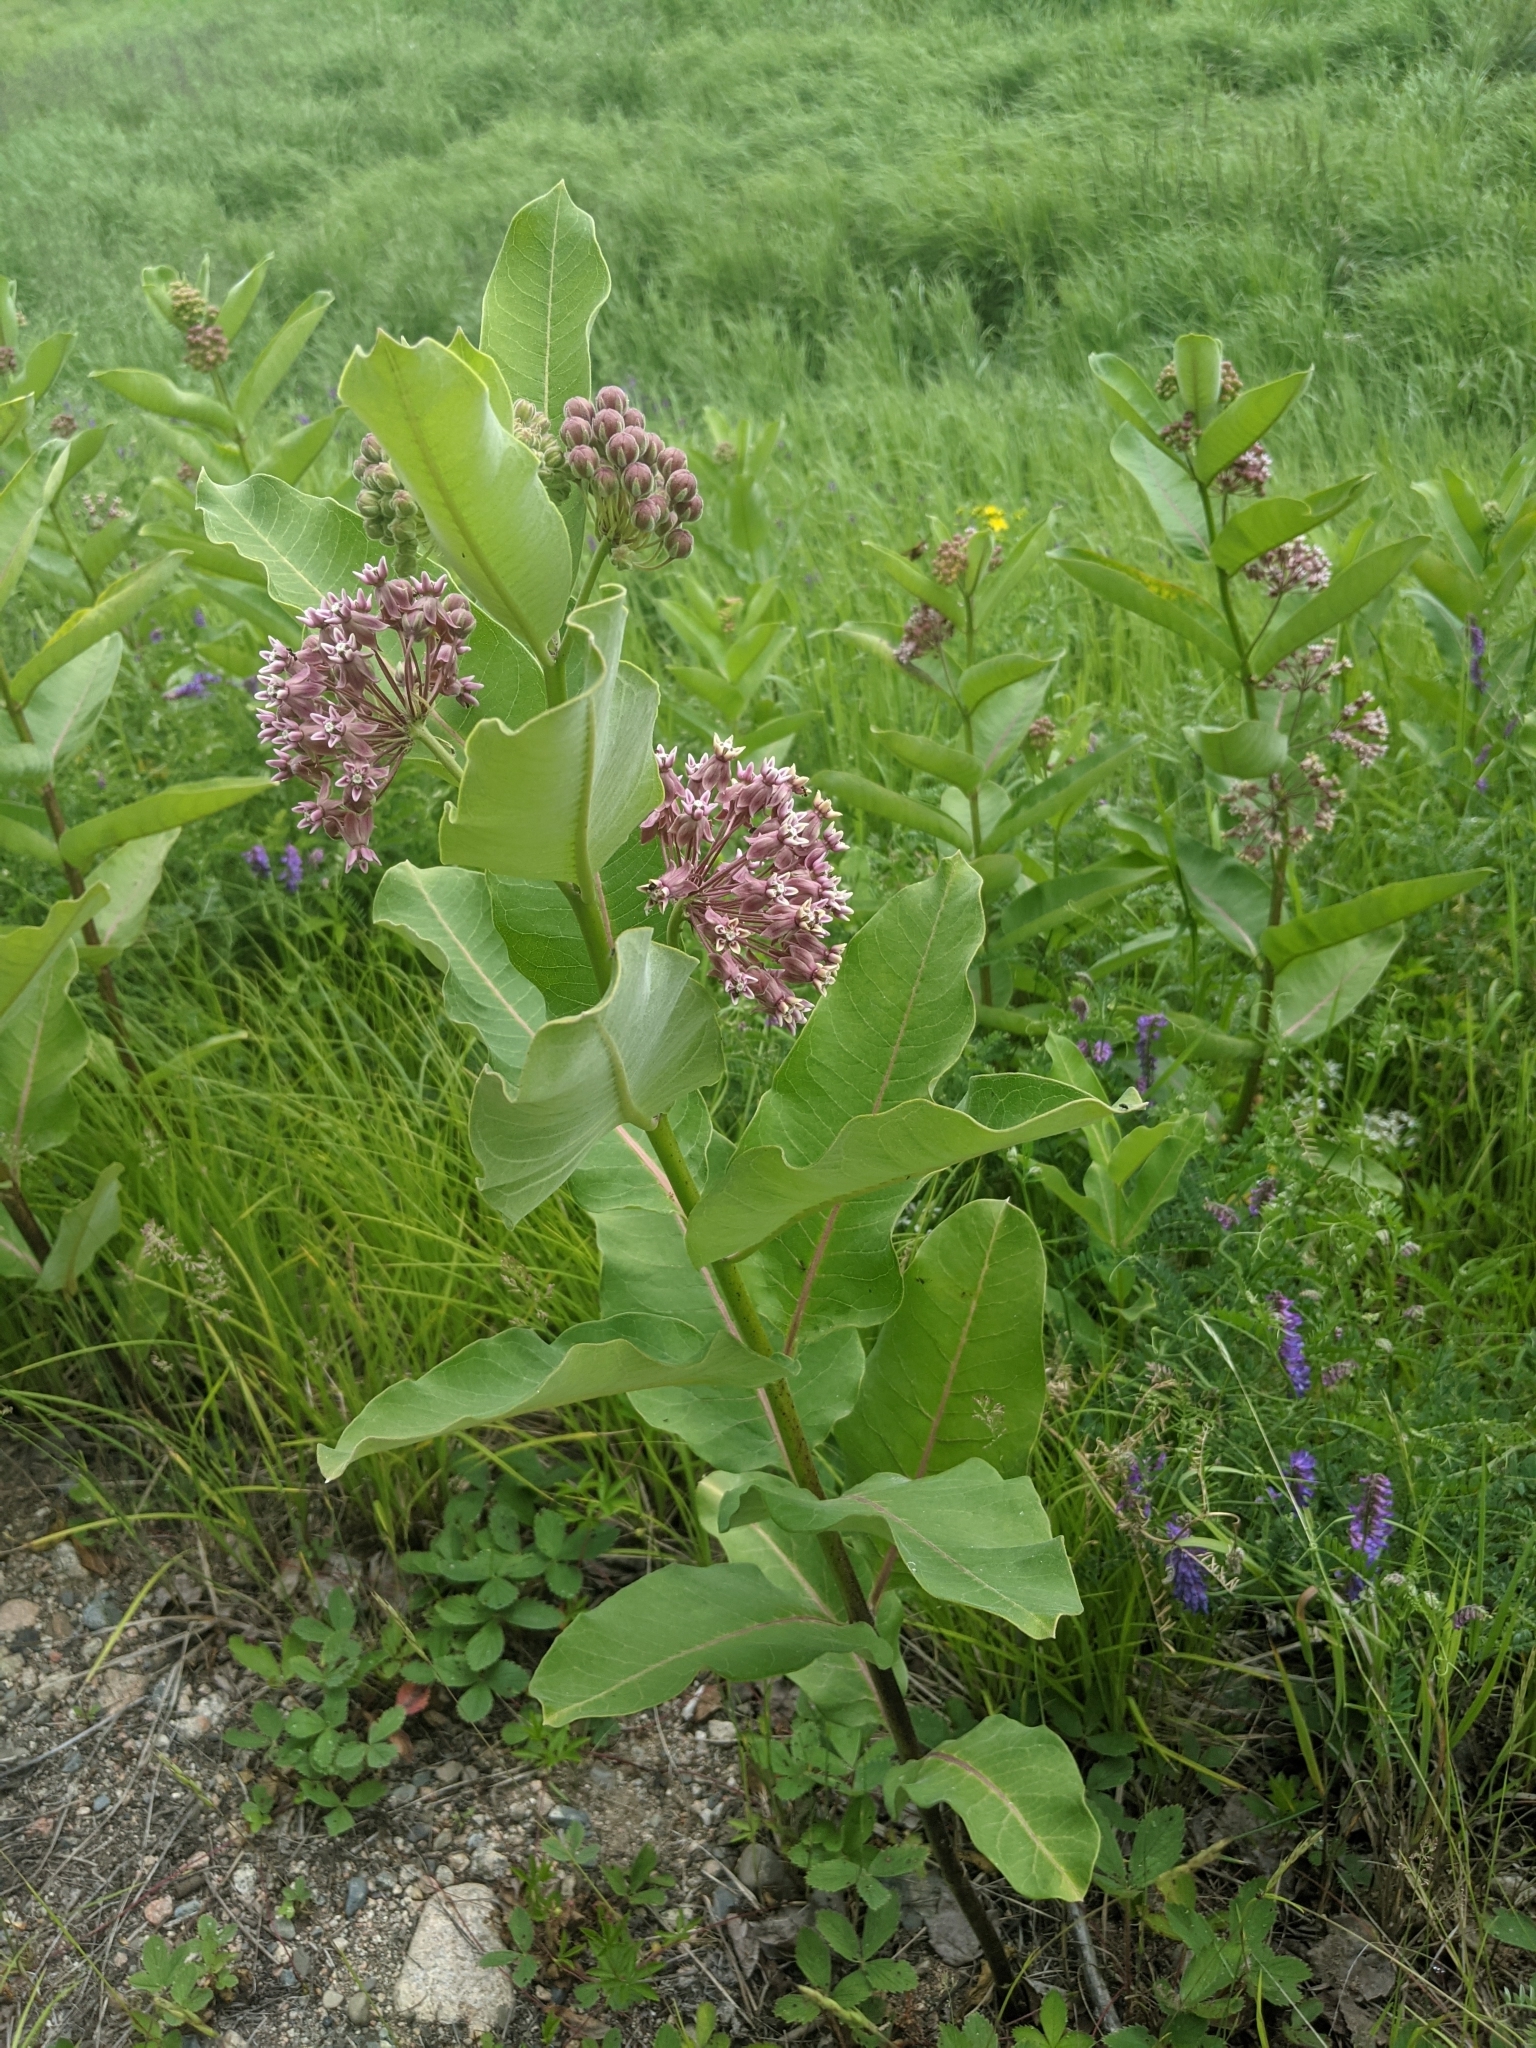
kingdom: Plantae
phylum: Tracheophyta
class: Magnoliopsida
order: Gentianales
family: Apocynaceae
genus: Asclepias
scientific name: Asclepias syriaca
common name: Common milkweed
